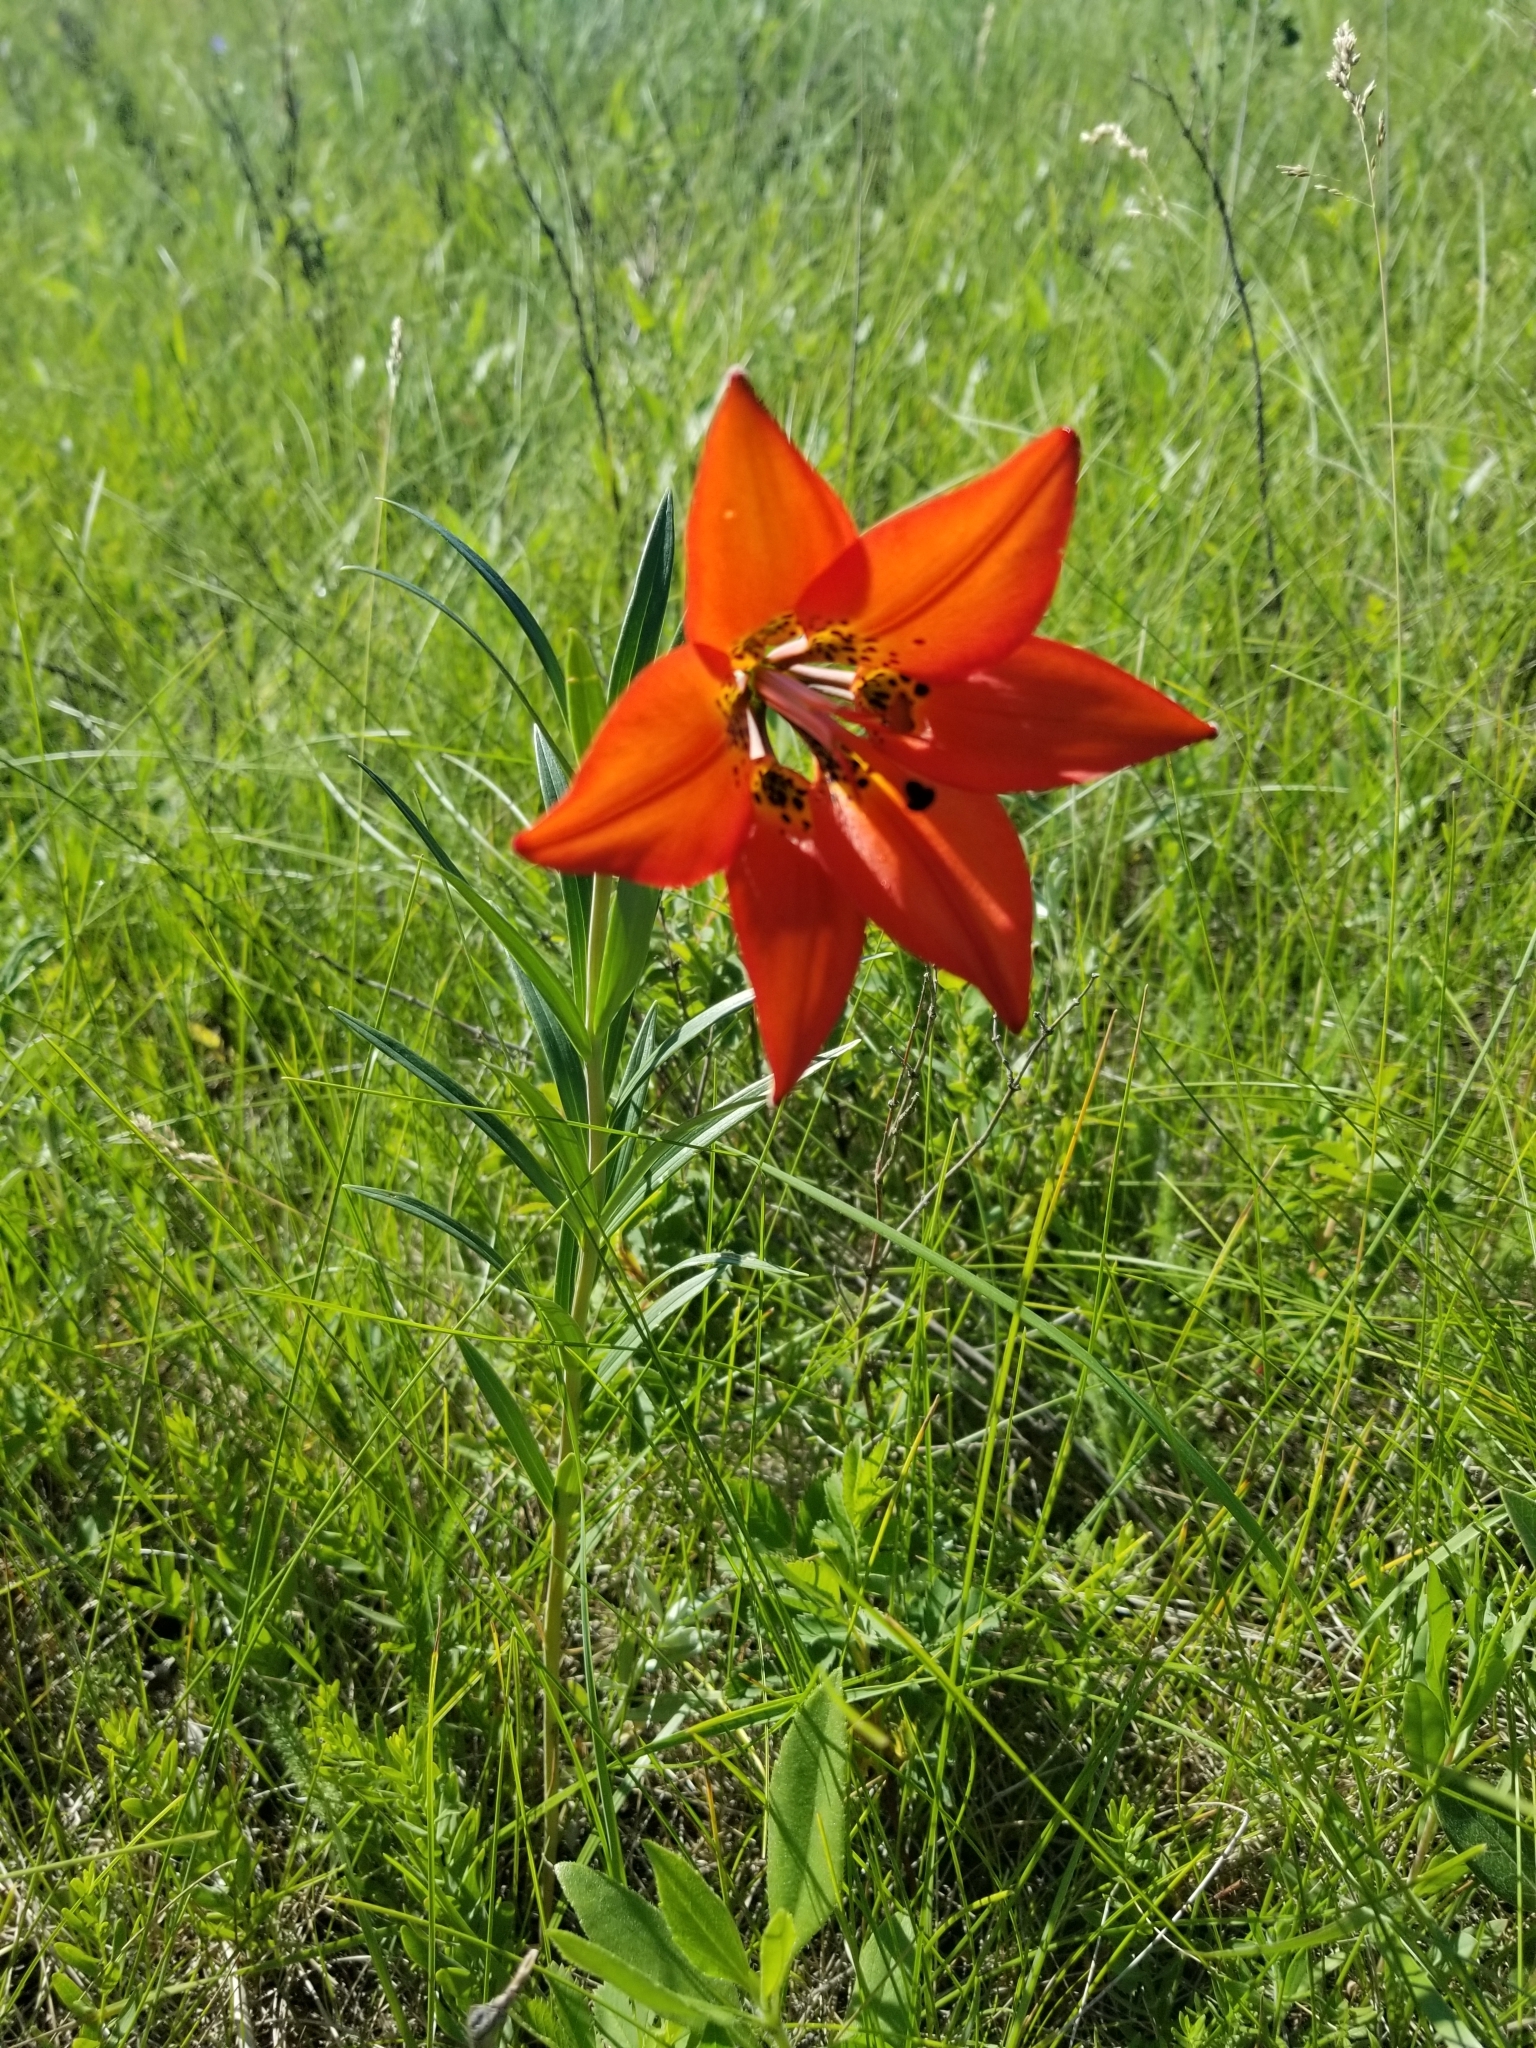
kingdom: Plantae
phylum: Tracheophyta
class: Liliopsida
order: Liliales
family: Liliaceae
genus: Lilium
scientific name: Lilium philadelphicum
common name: Red lily
